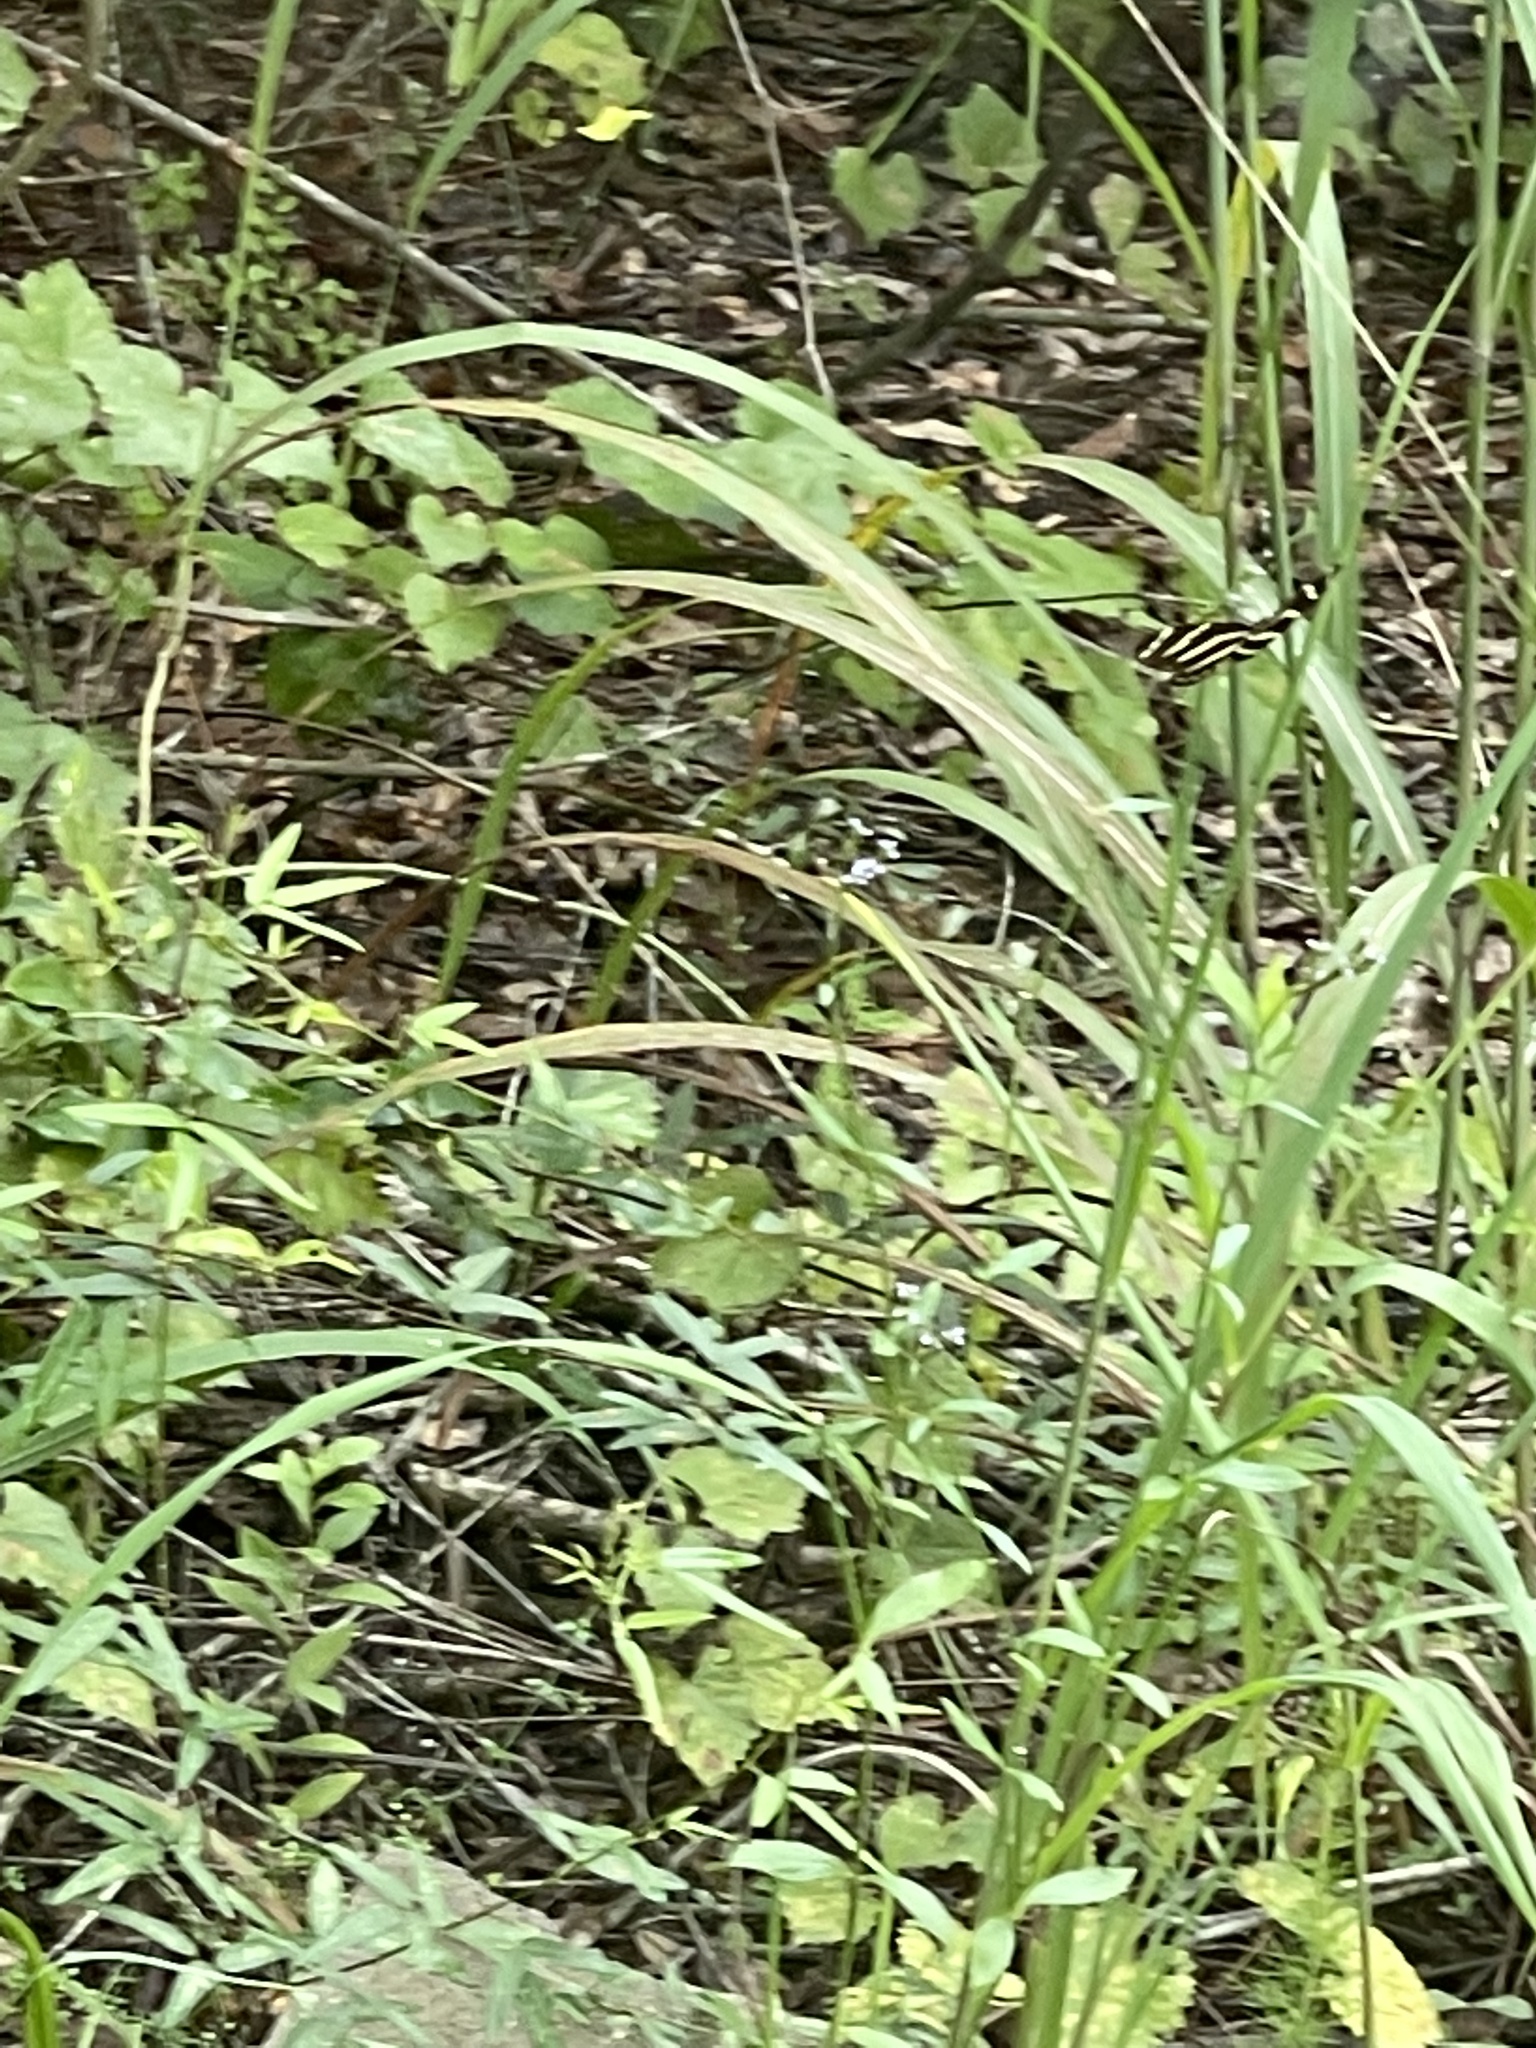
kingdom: Animalia
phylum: Arthropoda
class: Insecta
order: Lepidoptera
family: Nymphalidae
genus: Heliconius
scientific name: Heliconius charithonia
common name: Zebra long wing
